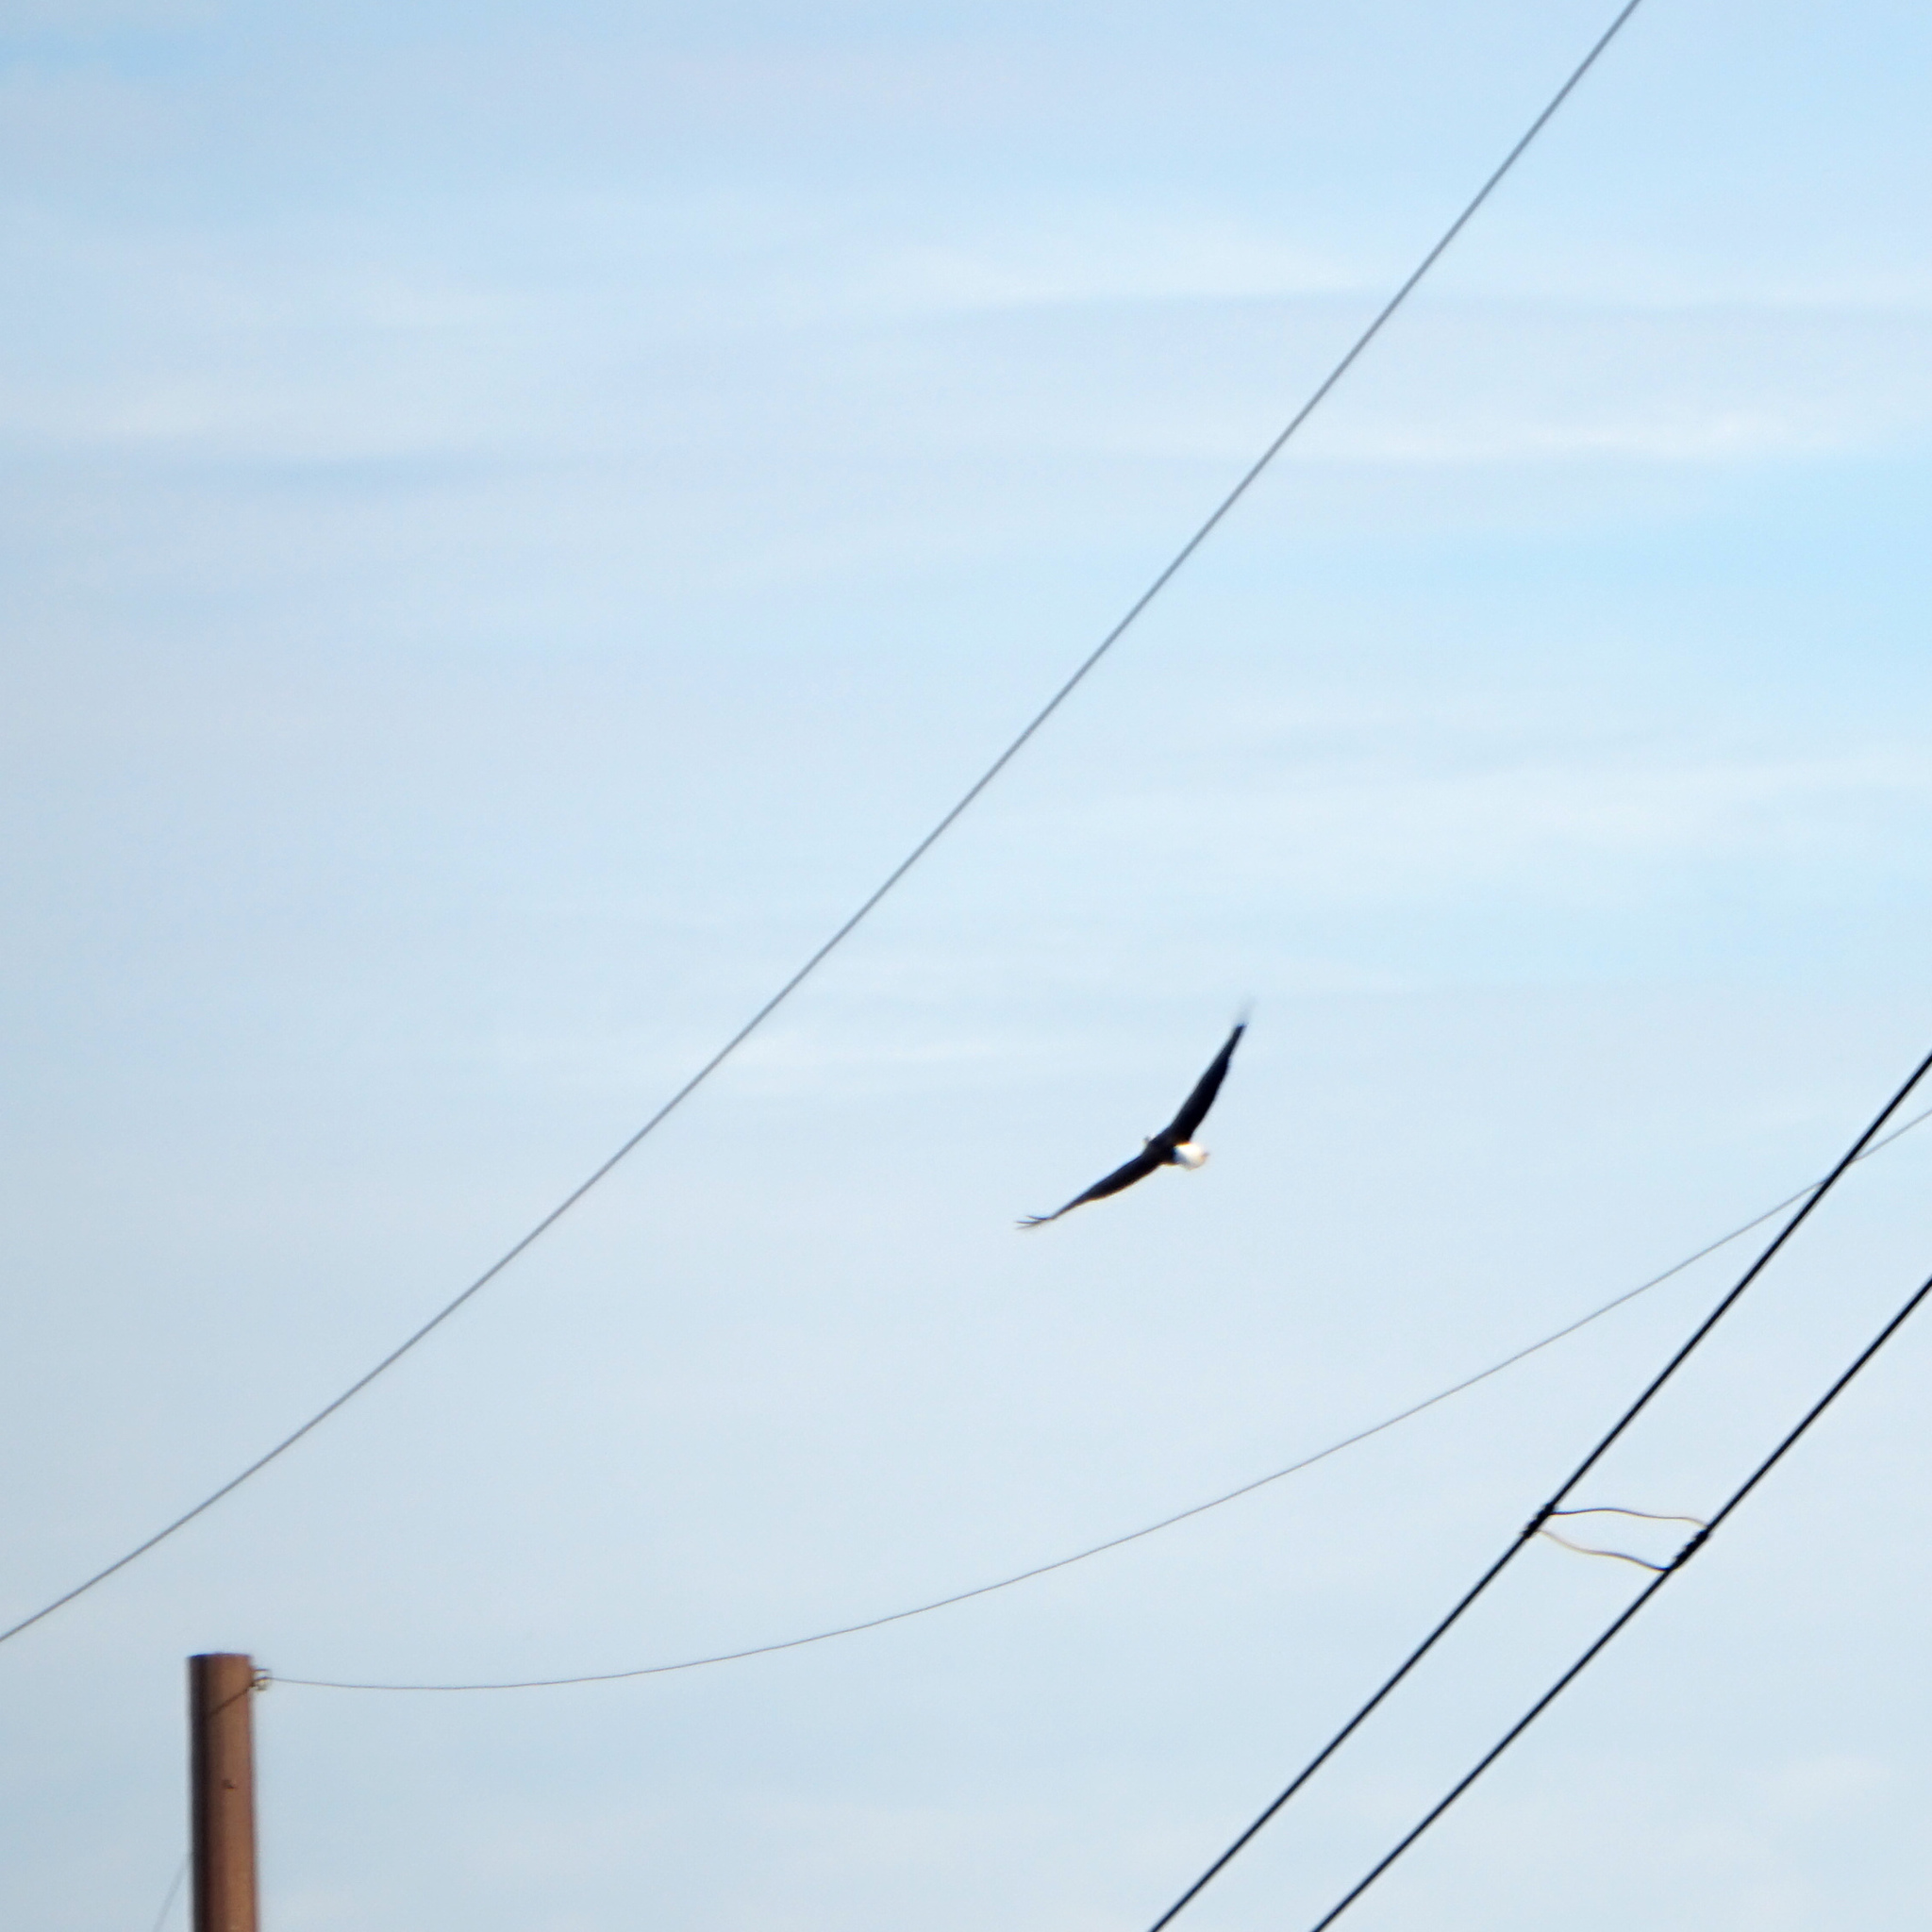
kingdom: Animalia
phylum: Chordata
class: Aves
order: Accipitriformes
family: Accipitridae
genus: Haliaeetus
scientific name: Haliaeetus leucocephalus
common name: Bald eagle
